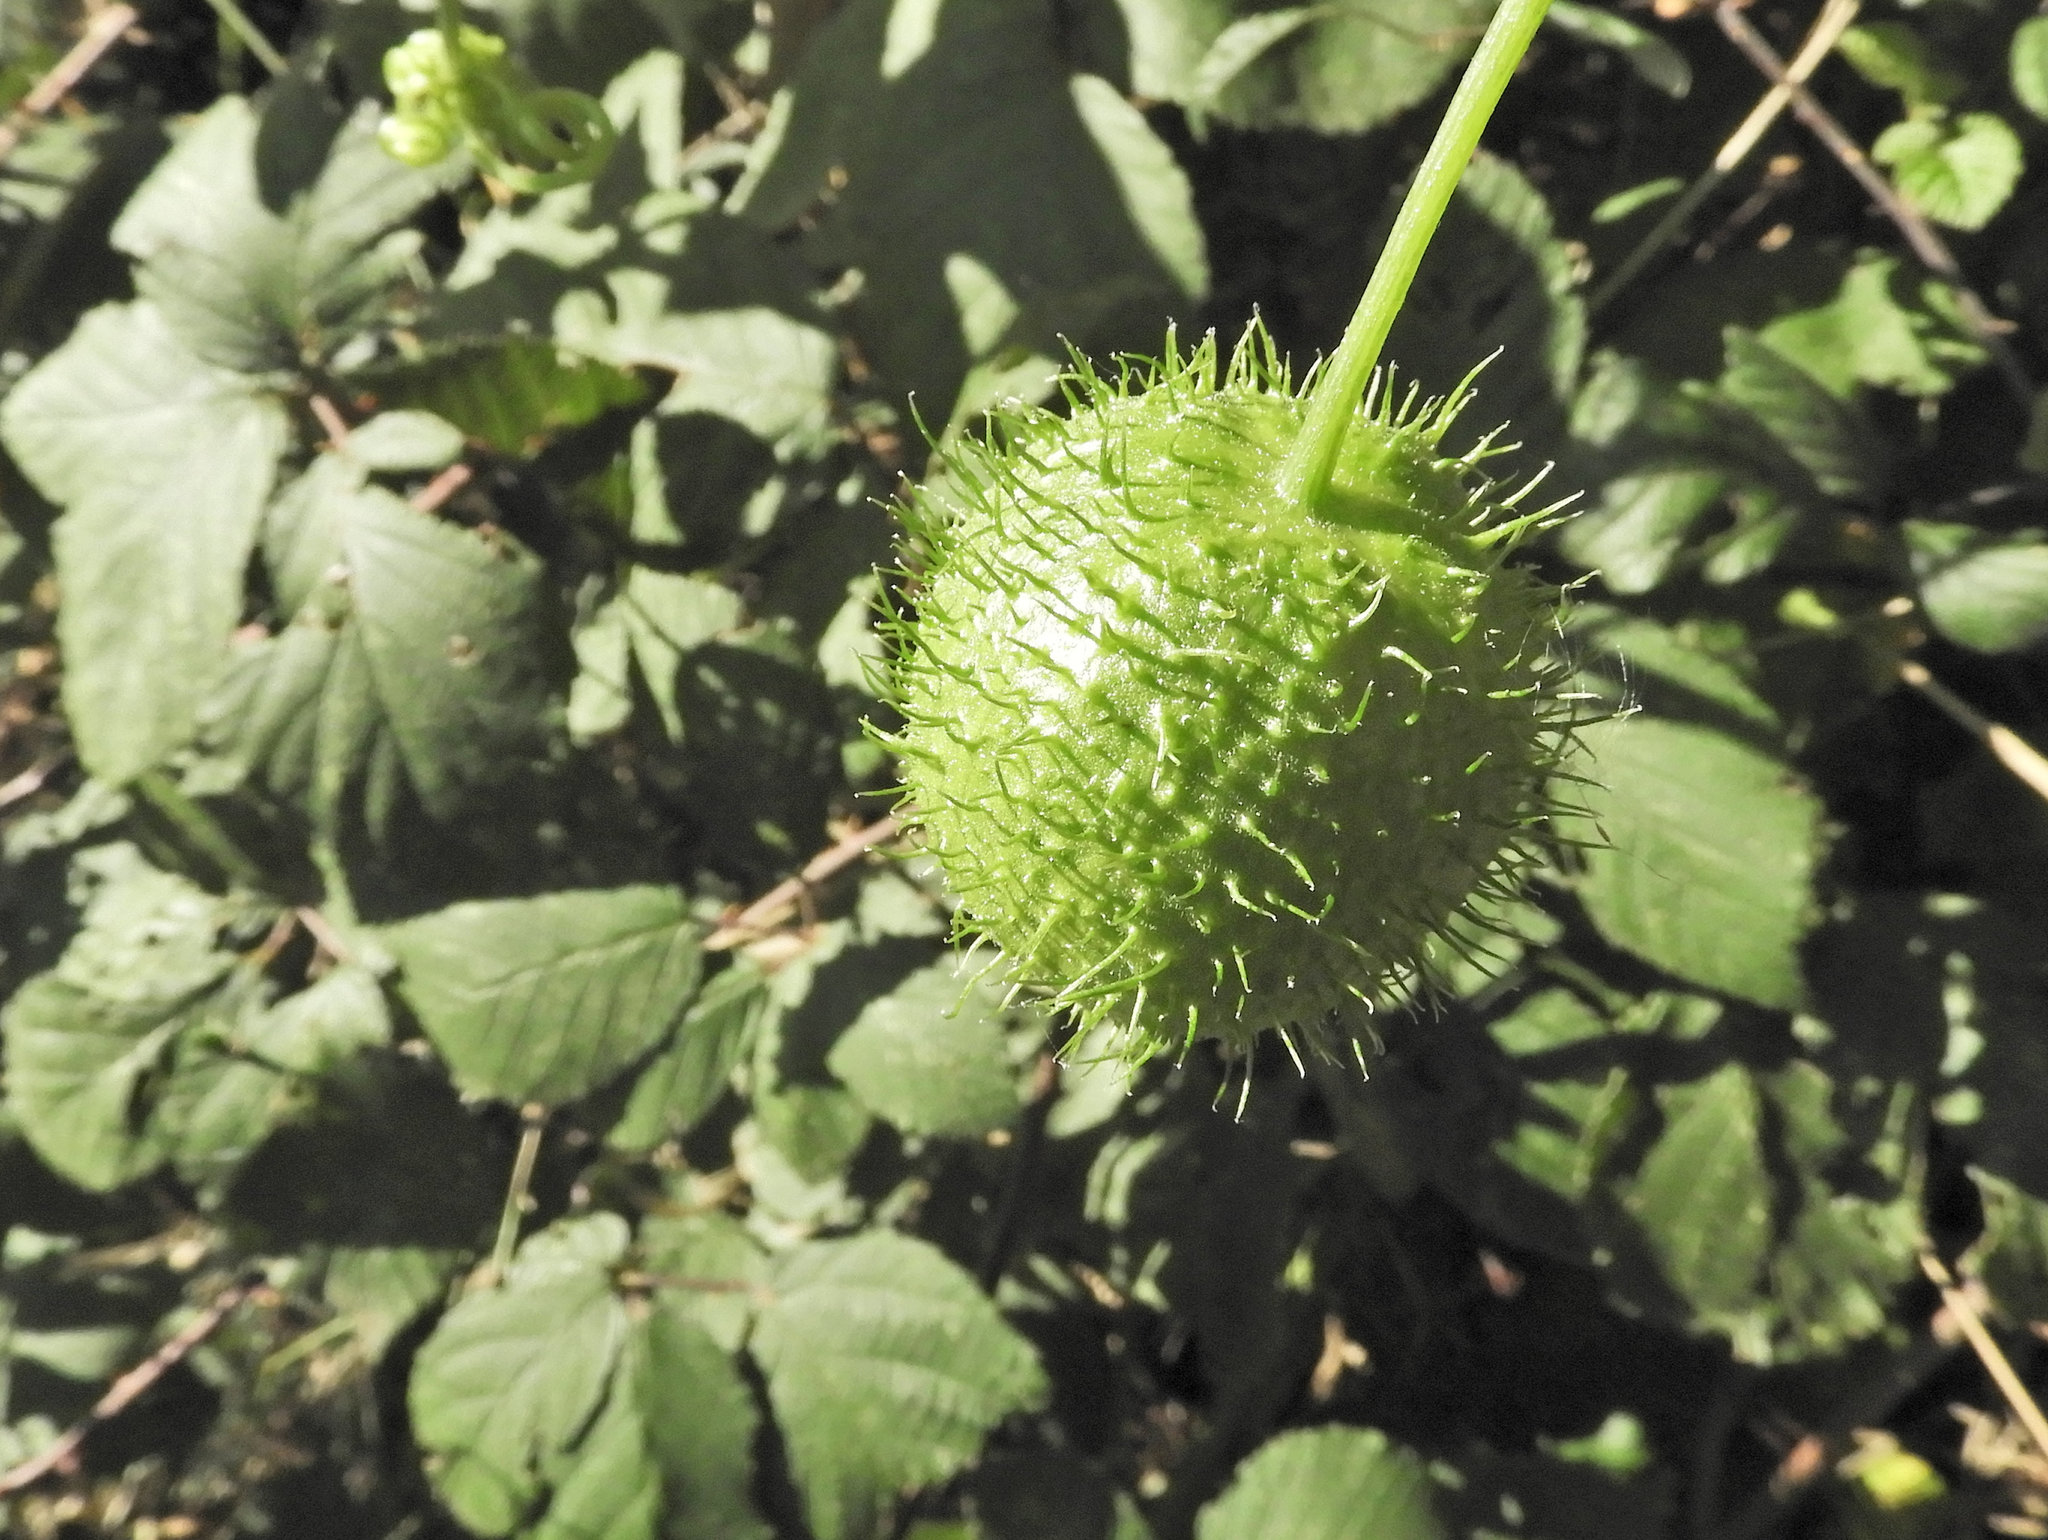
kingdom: Plantae
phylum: Tracheophyta
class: Magnoliopsida
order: Cucurbitales
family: Cucurbitaceae
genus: Marah
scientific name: Marah fabacea
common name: California manroot
